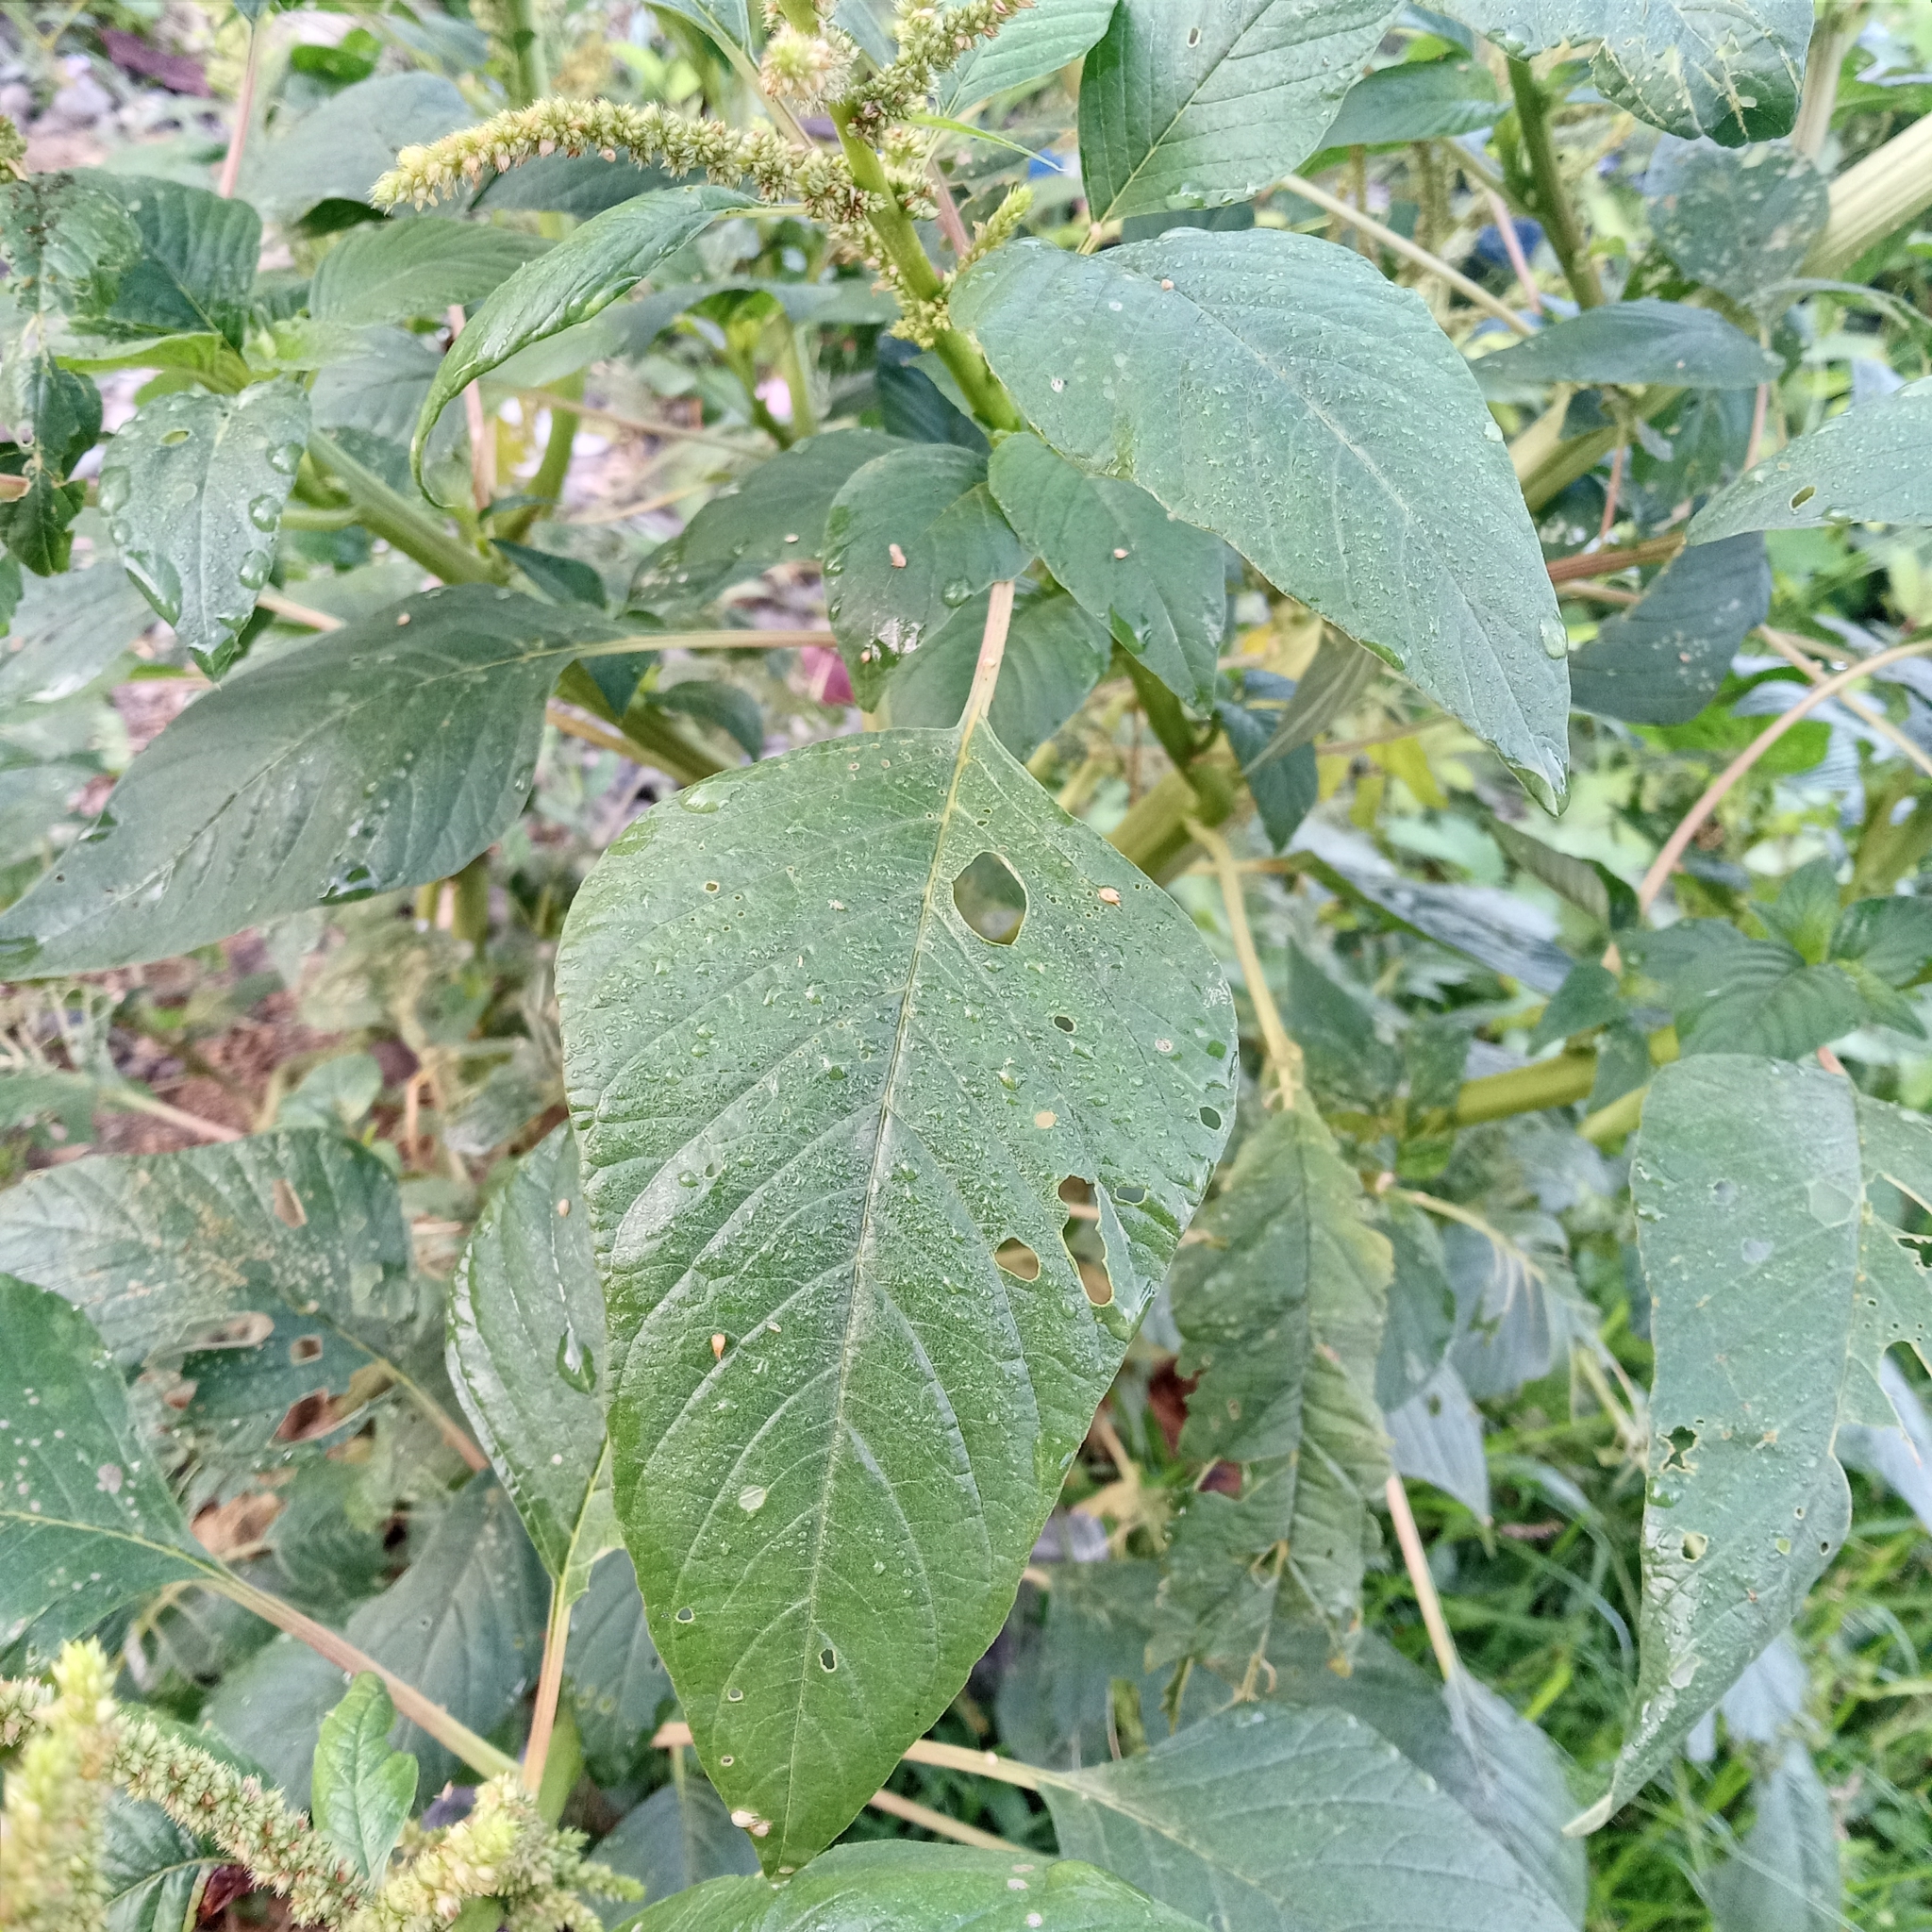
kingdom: Plantae
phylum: Tracheophyta
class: Magnoliopsida
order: Caryophyllales
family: Amaranthaceae
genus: Amaranthus
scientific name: Amaranthus viridis
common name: Slender amaranth
